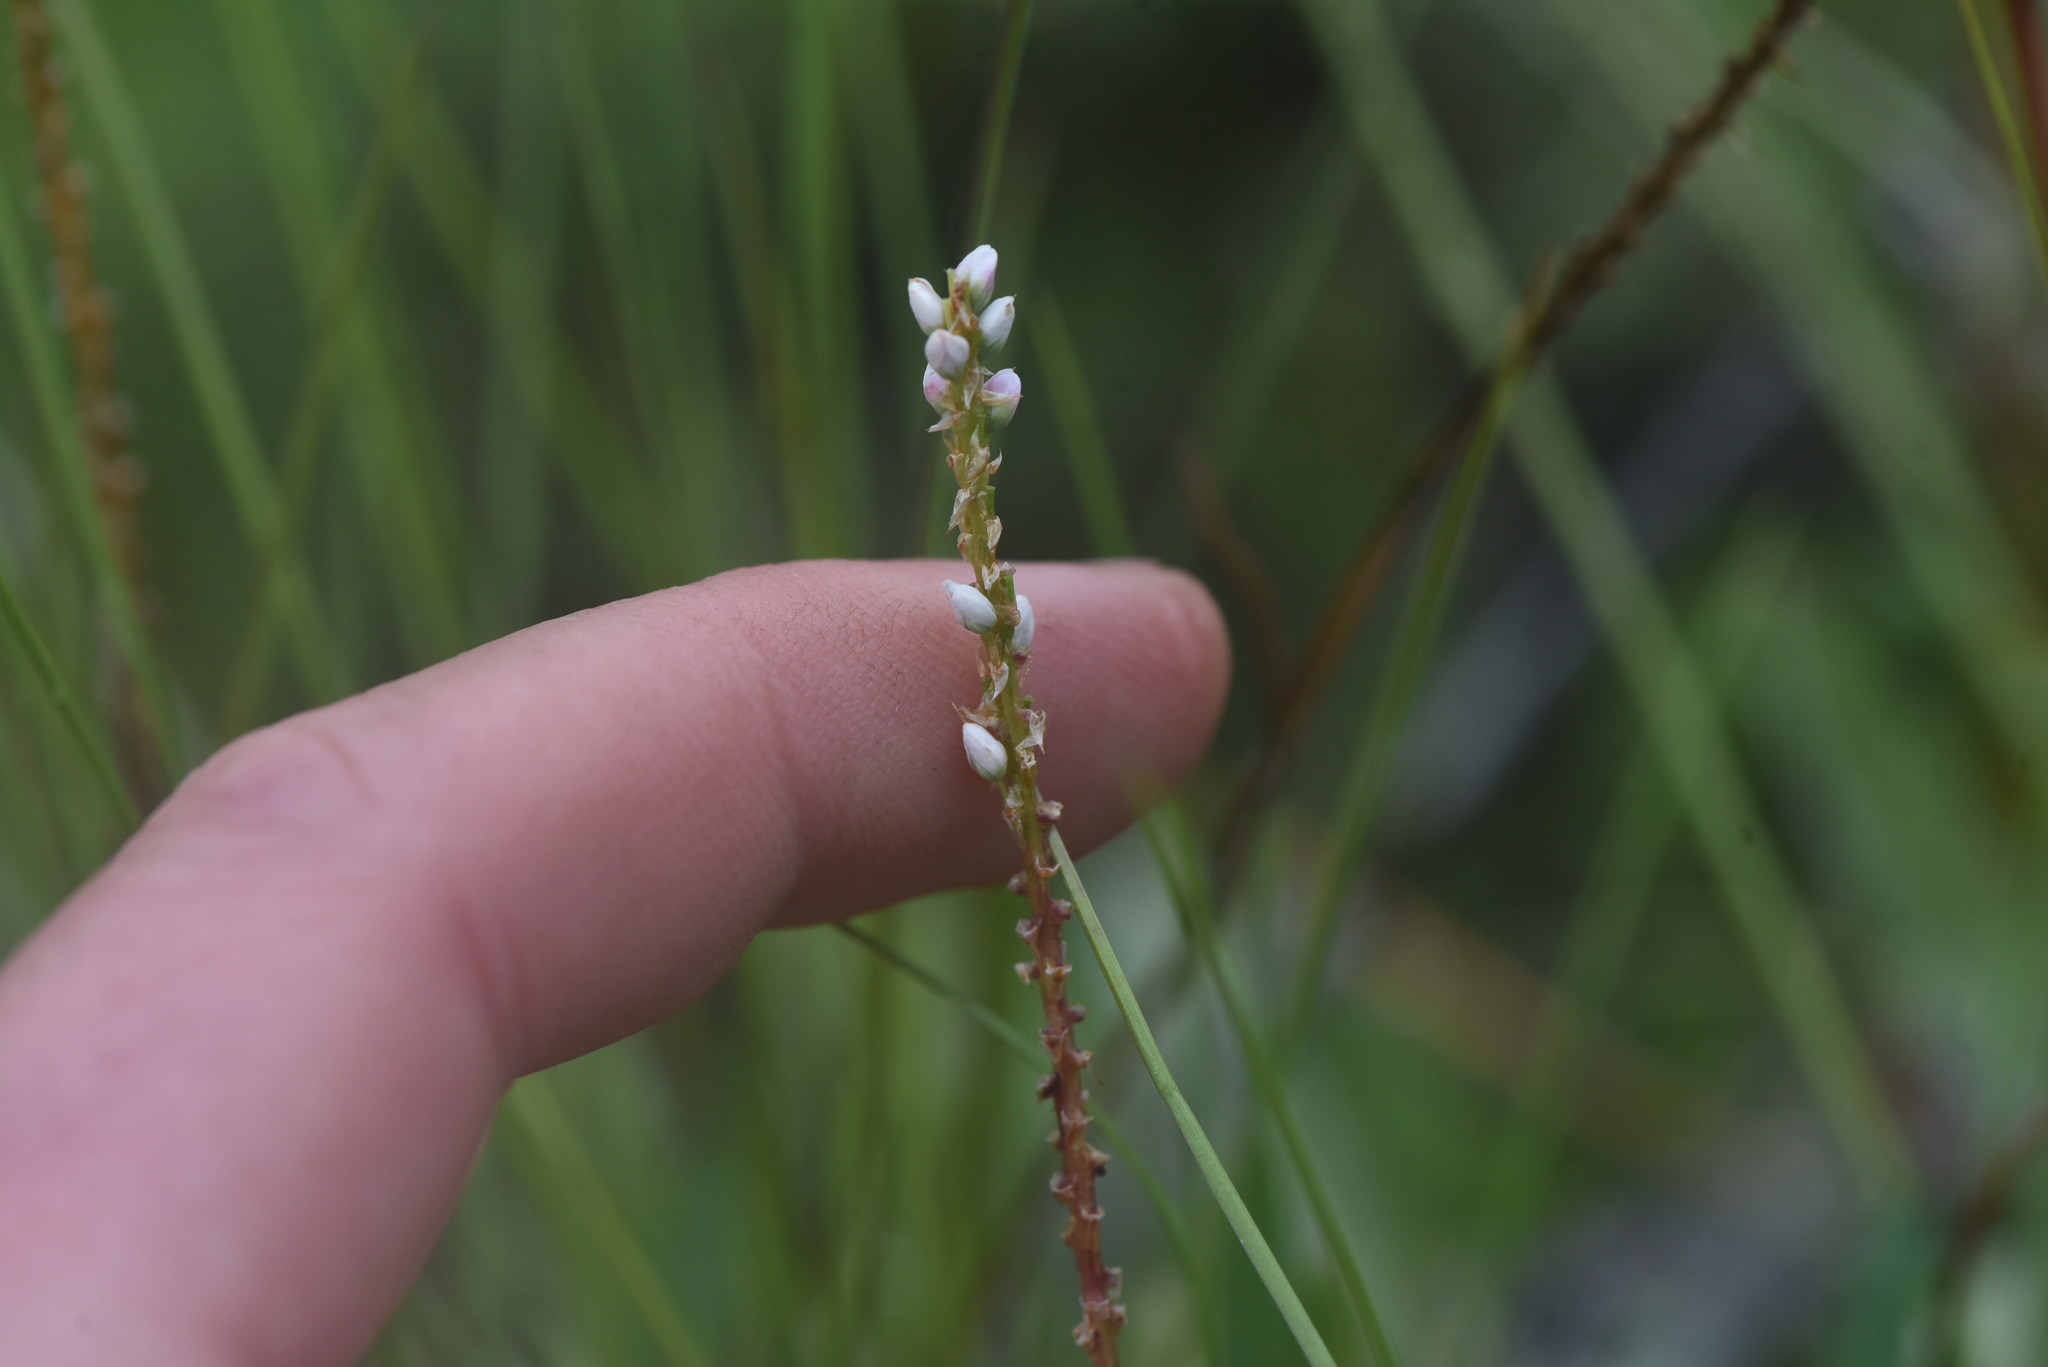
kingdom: Plantae
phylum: Tracheophyta
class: Magnoliopsida
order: Caryophyllales
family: Polygonaceae
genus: Bistorta
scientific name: Bistorta vivipara
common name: Alpine bistort
